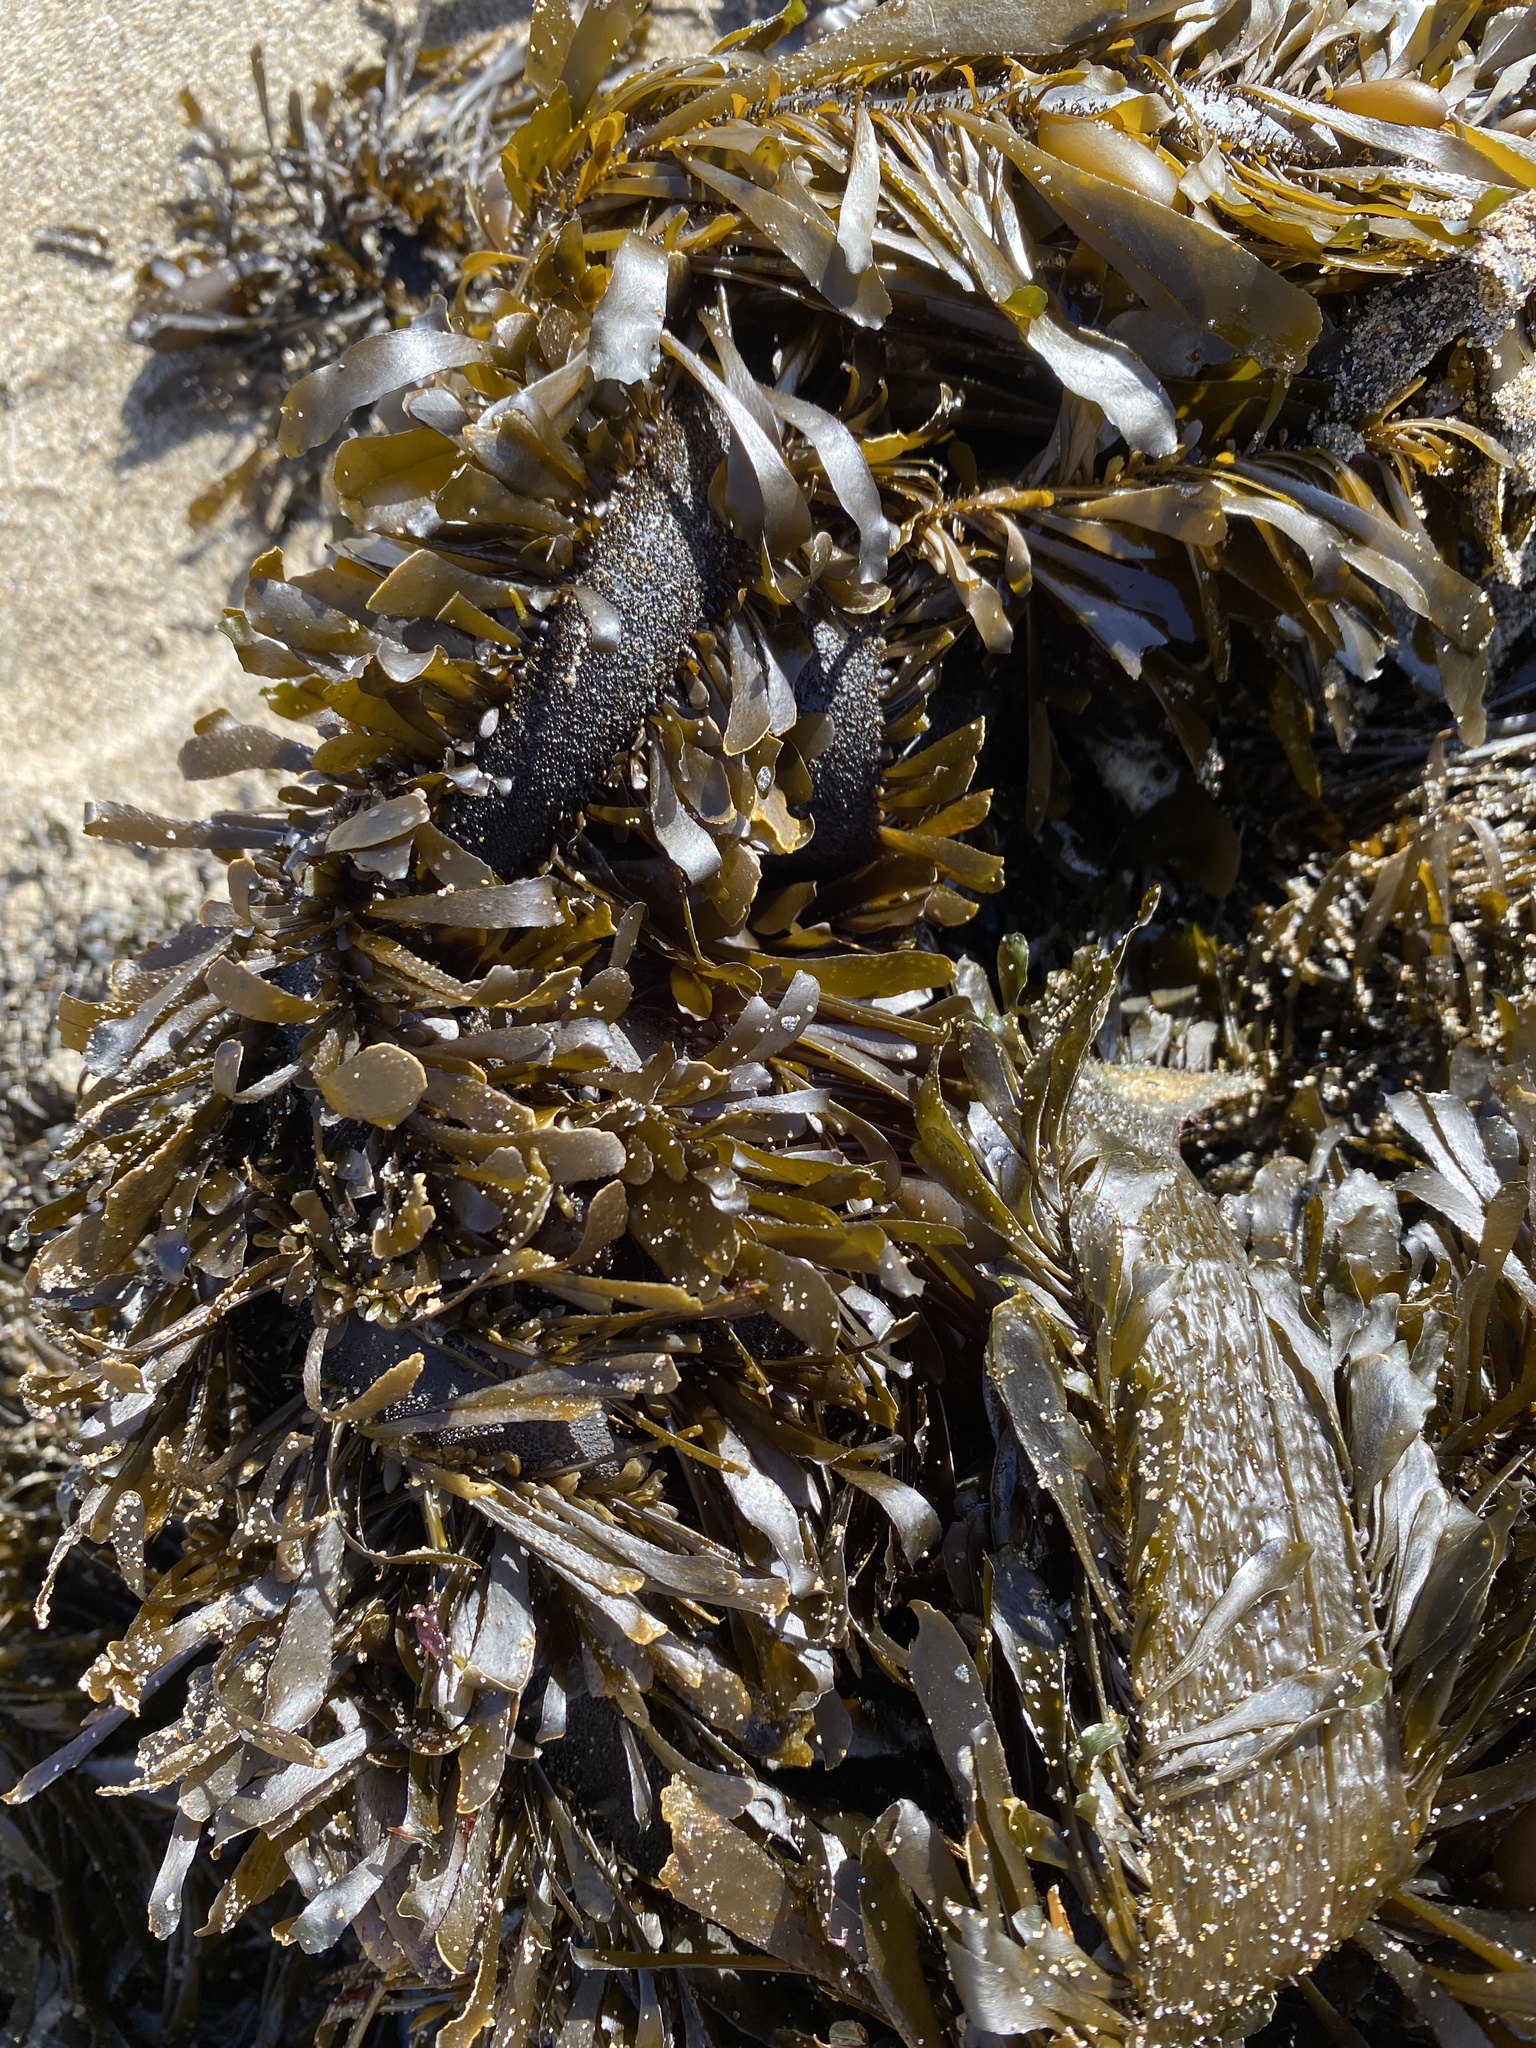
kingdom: Chromista
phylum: Ochrophyta
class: Phaeophyceae
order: Laminariales
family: Lessoniaceae
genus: Egregia
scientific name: Egregia menziesii
